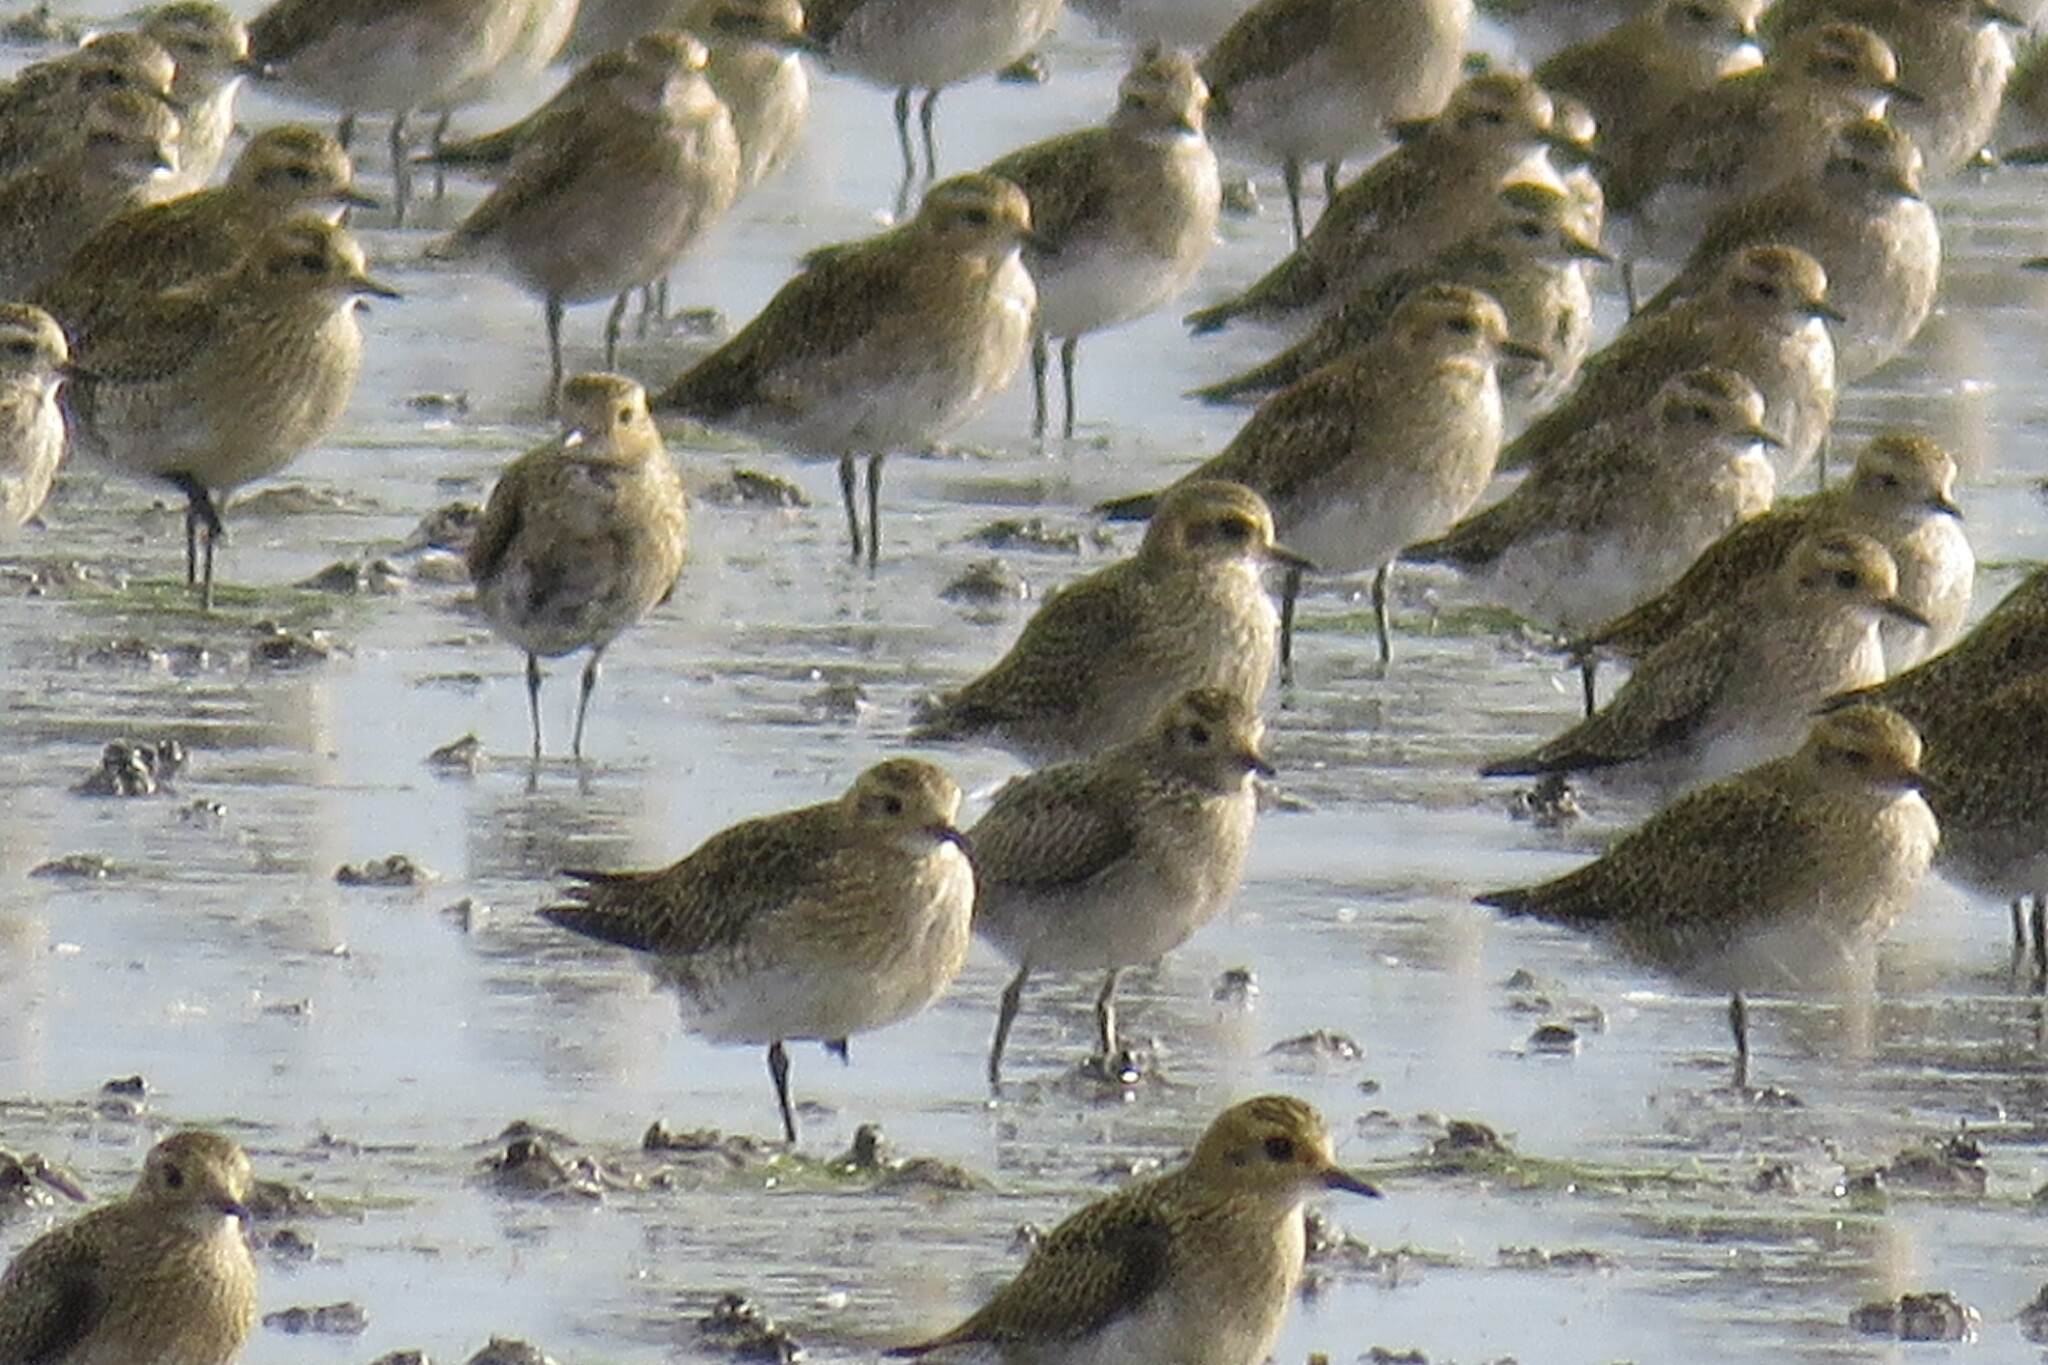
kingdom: Animalia
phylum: Chordata
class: Aves
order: Charadriiformes
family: Charadriidae
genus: Pluvialis
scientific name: Pluvialis apricaria
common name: European golden plover
